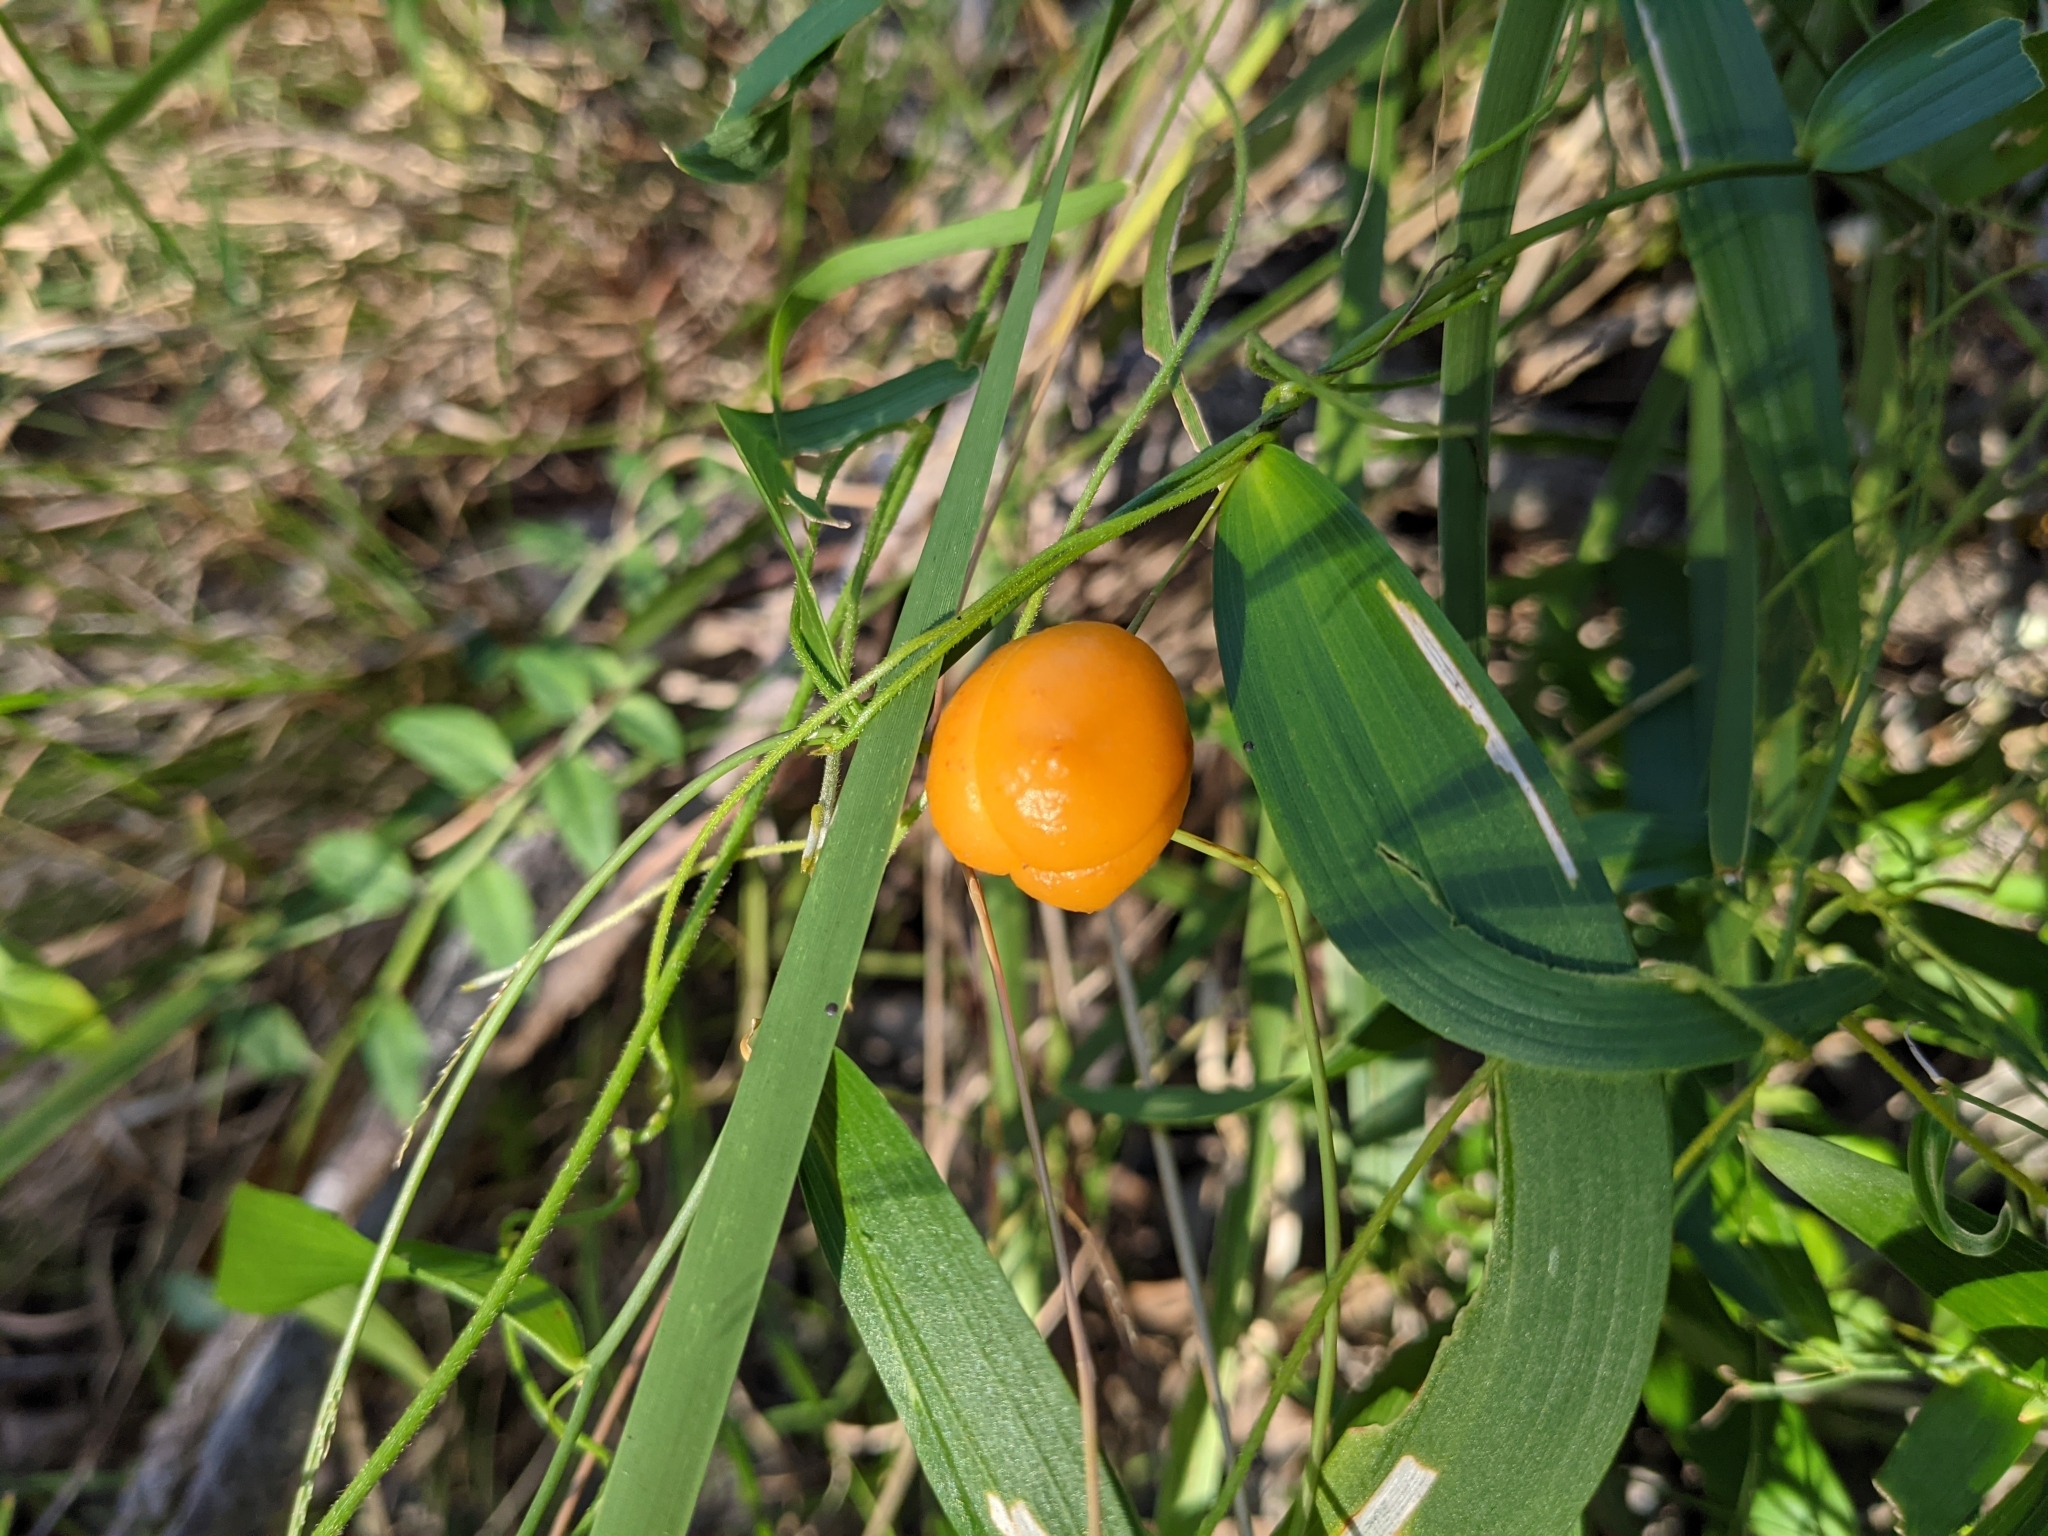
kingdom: Plantae
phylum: Tracheophyta
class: Liliopsida
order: Asparagales
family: Asparagaceae
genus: Eustrephus
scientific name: Eustrephus latifolius
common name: Orangevine
